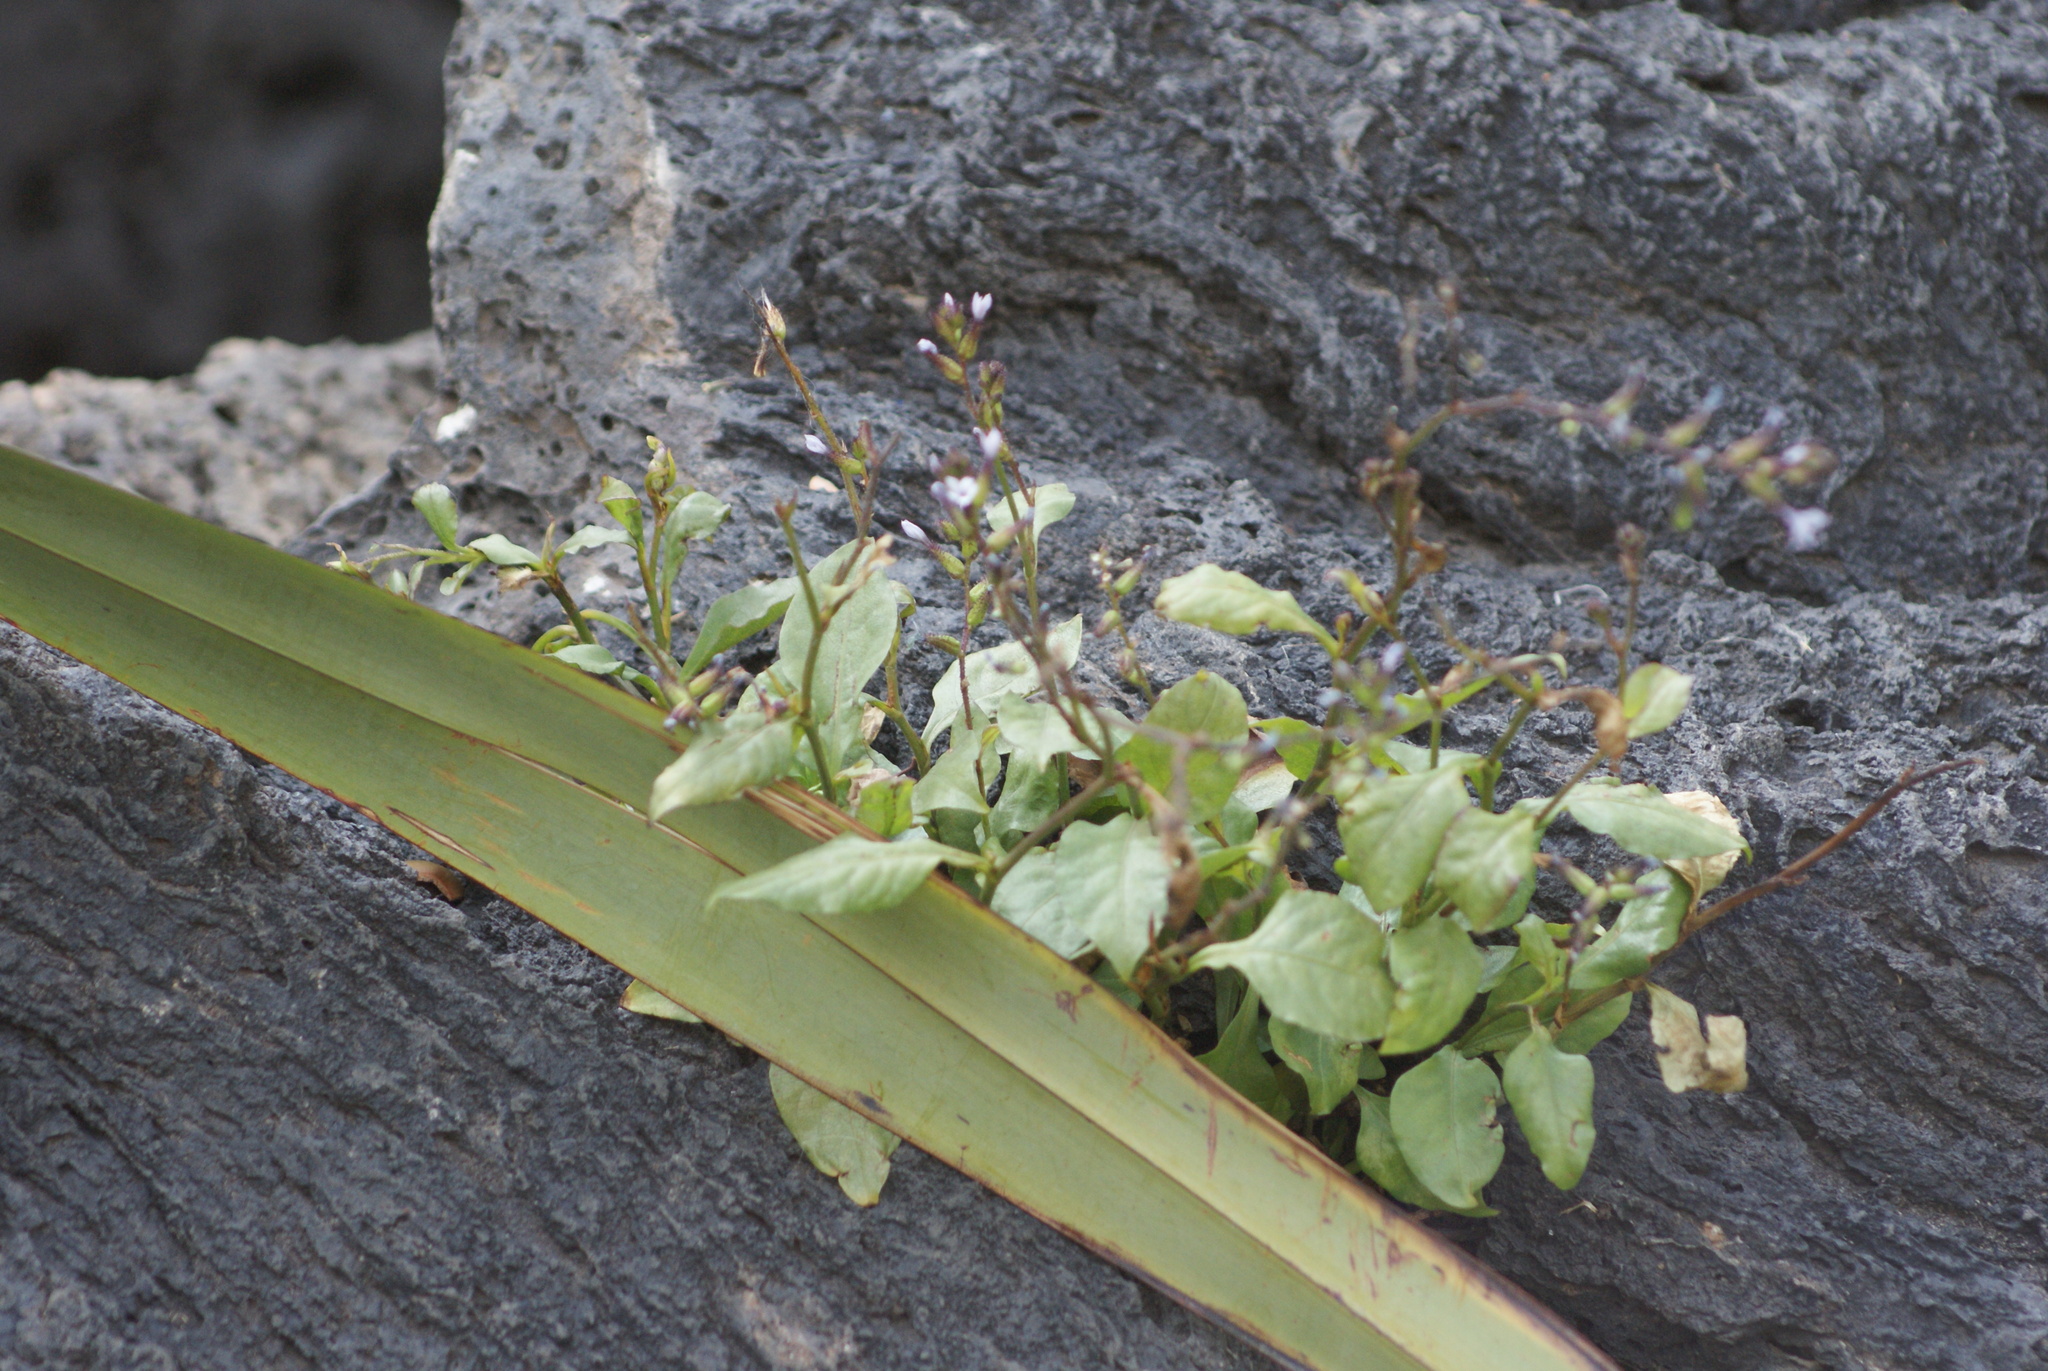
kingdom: Plantae
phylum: Tracheophyta
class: Magnoliopsida
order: Caryophyllales
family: Plumbaginaceae
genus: Plumbago
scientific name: Plumbago pulchella
